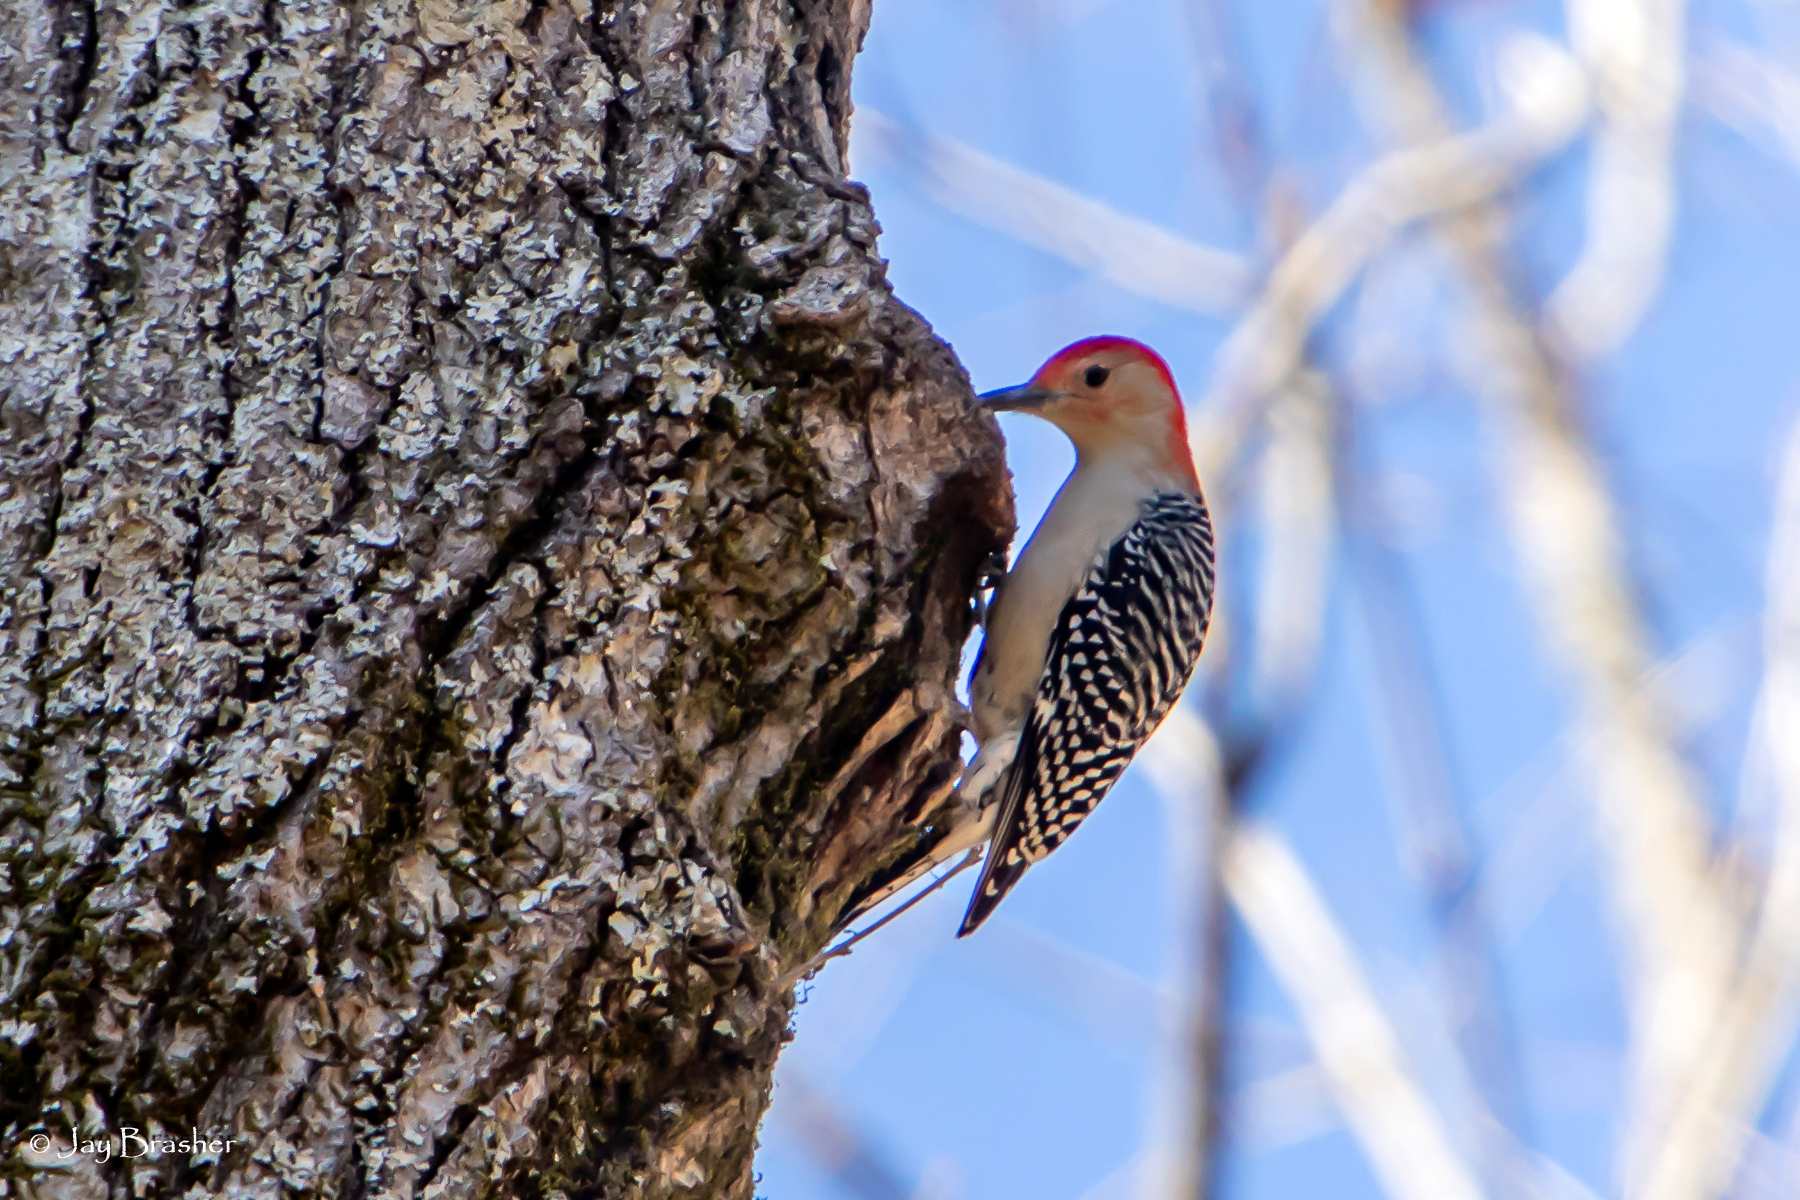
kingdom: Animalia
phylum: Chordata
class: Aves
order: Piciformes
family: Picidae
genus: Melanerpes
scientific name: Melanerpes carolinus
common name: Red-bellied woodpecker
